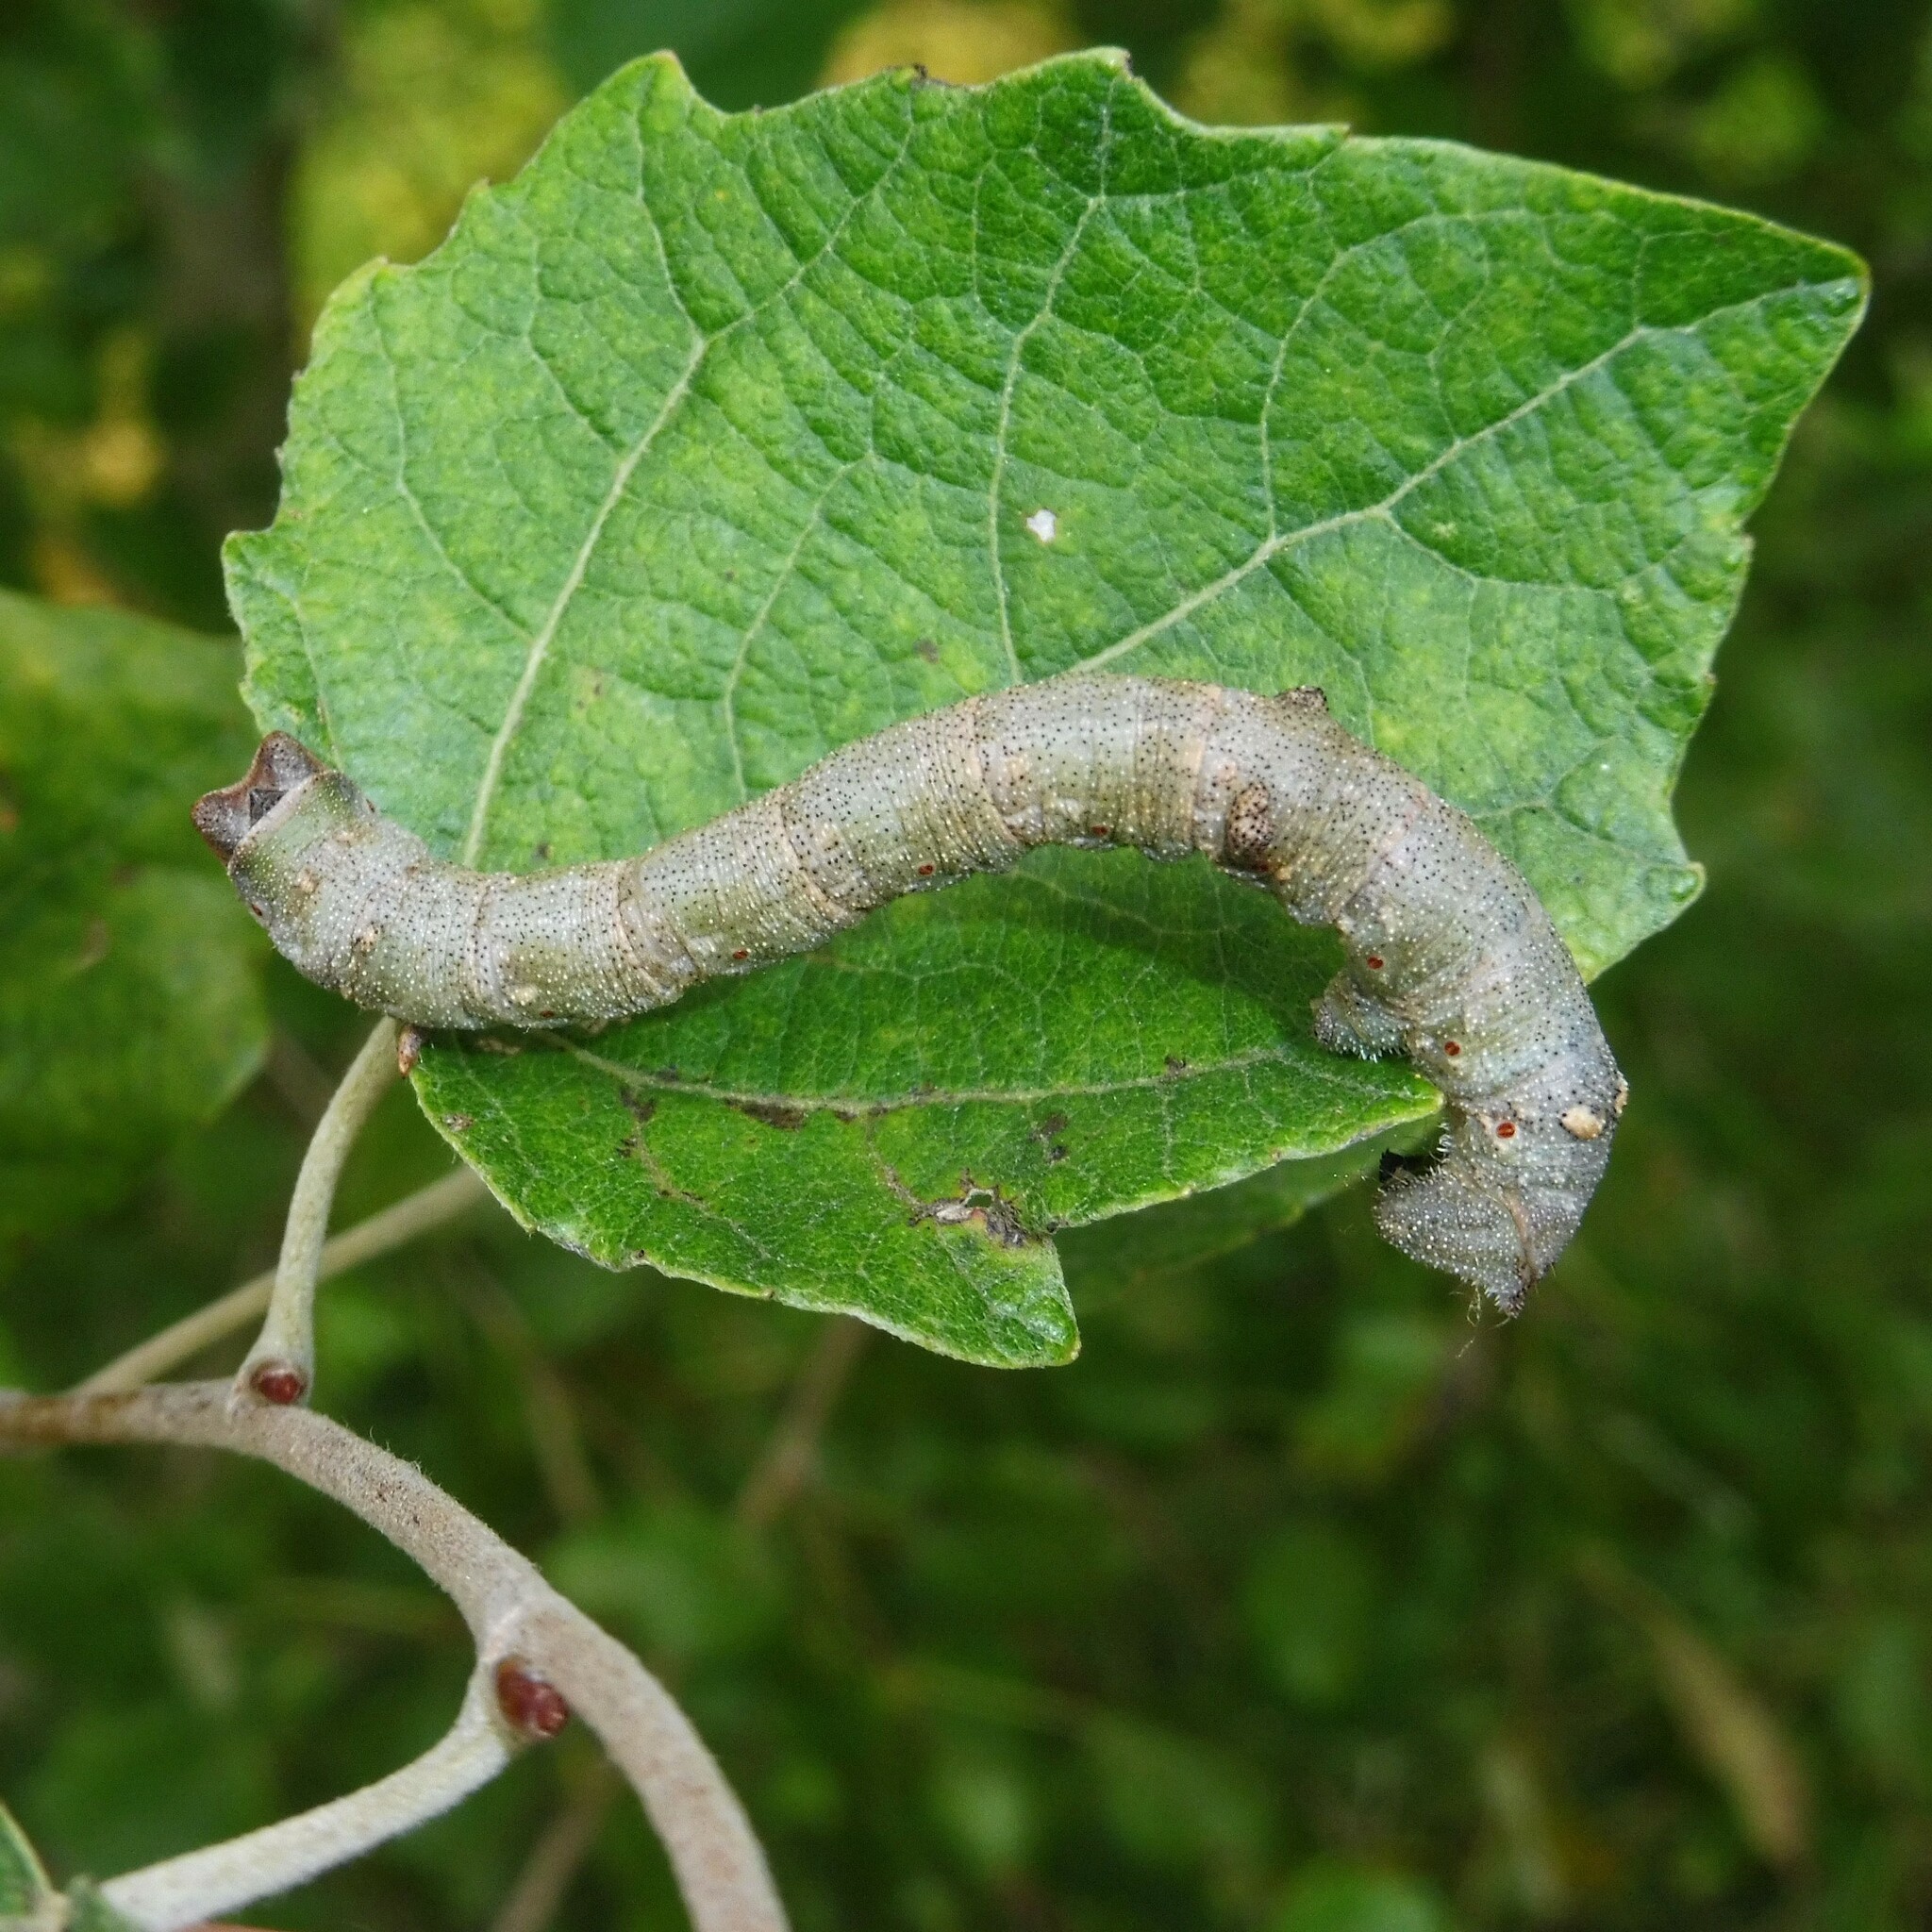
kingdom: Animalia
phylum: Arthropoda
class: Insecta
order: Lepidoptera
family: Geometridae
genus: Biston
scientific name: Biston betularia
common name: Peppered moth
